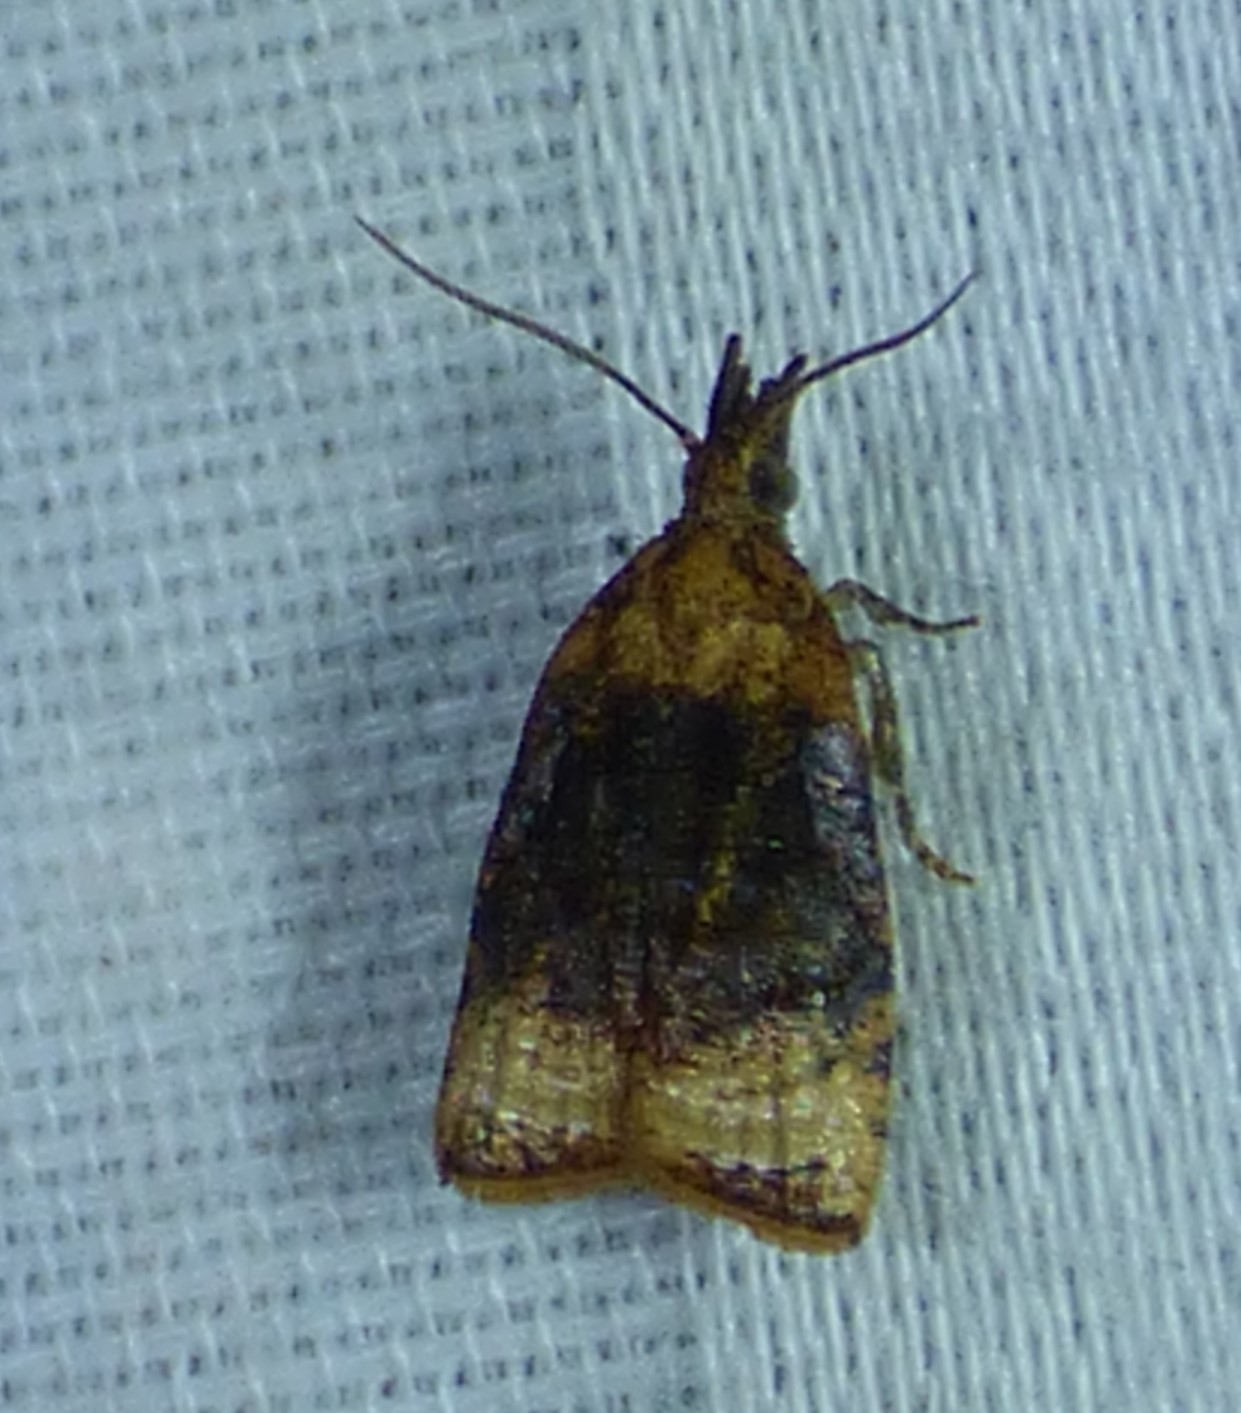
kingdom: Animalia
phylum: Arthropoda
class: Insecta
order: Lepidoptera
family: Tortricidae
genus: Platynota
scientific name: Platynota flavedana
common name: Black-shaded platynota moth
